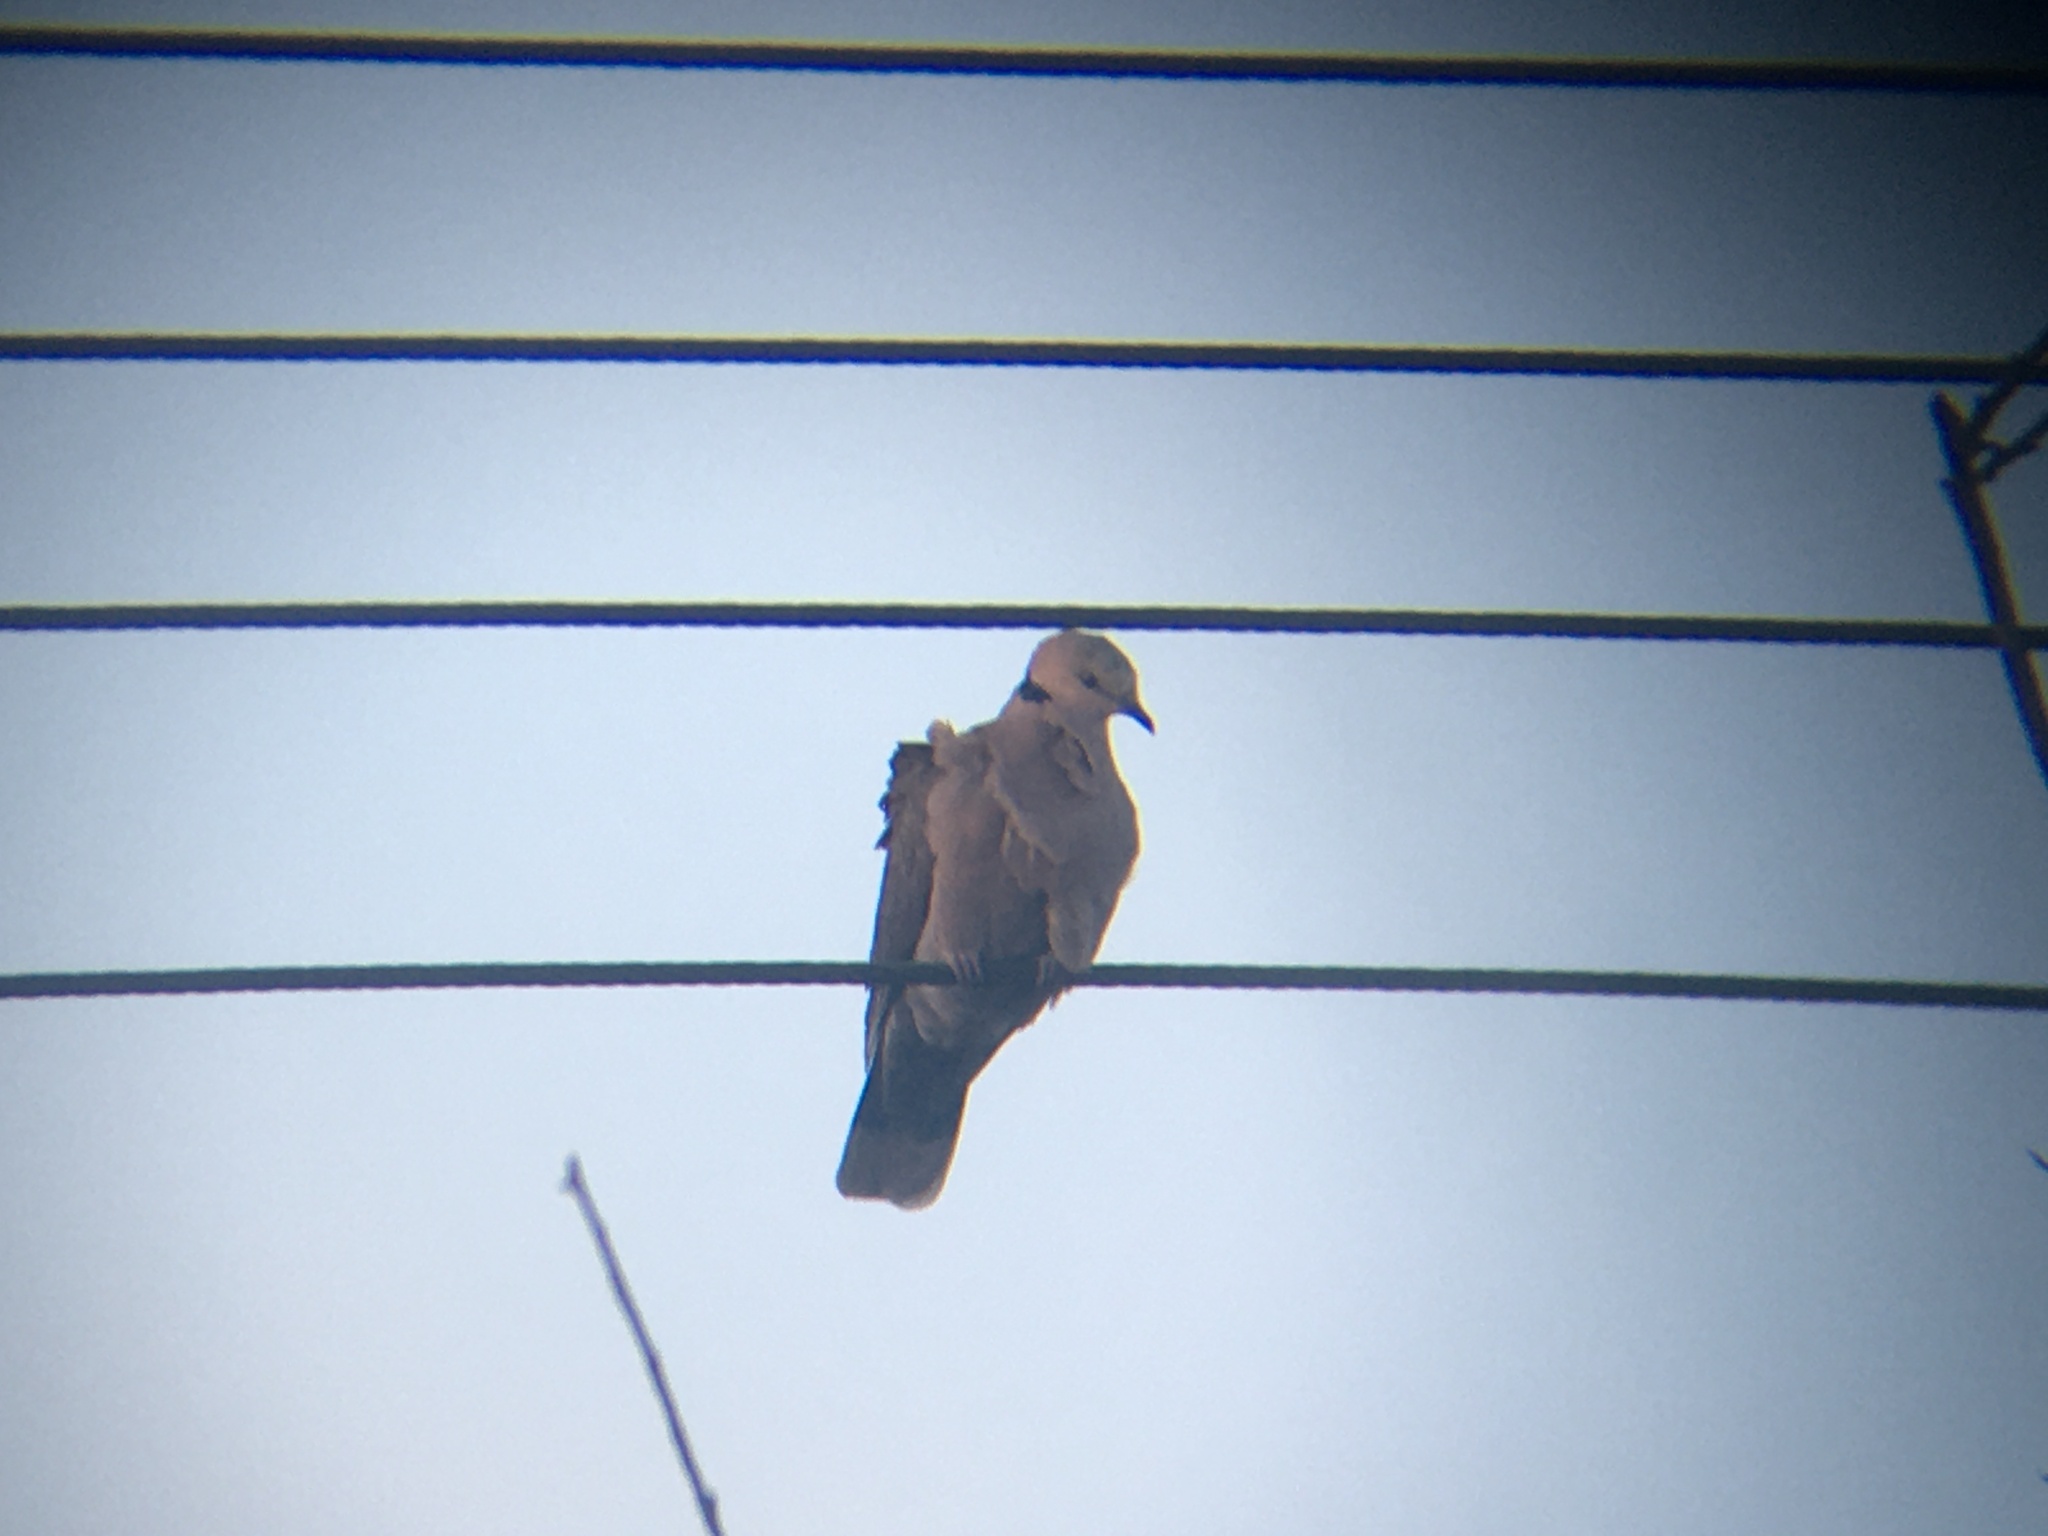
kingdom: Animalia
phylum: Chordata
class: Aves
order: Columbiformes
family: Columbidae
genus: Streptopelia
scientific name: Streptopelia capicola
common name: Ring-necked dove
